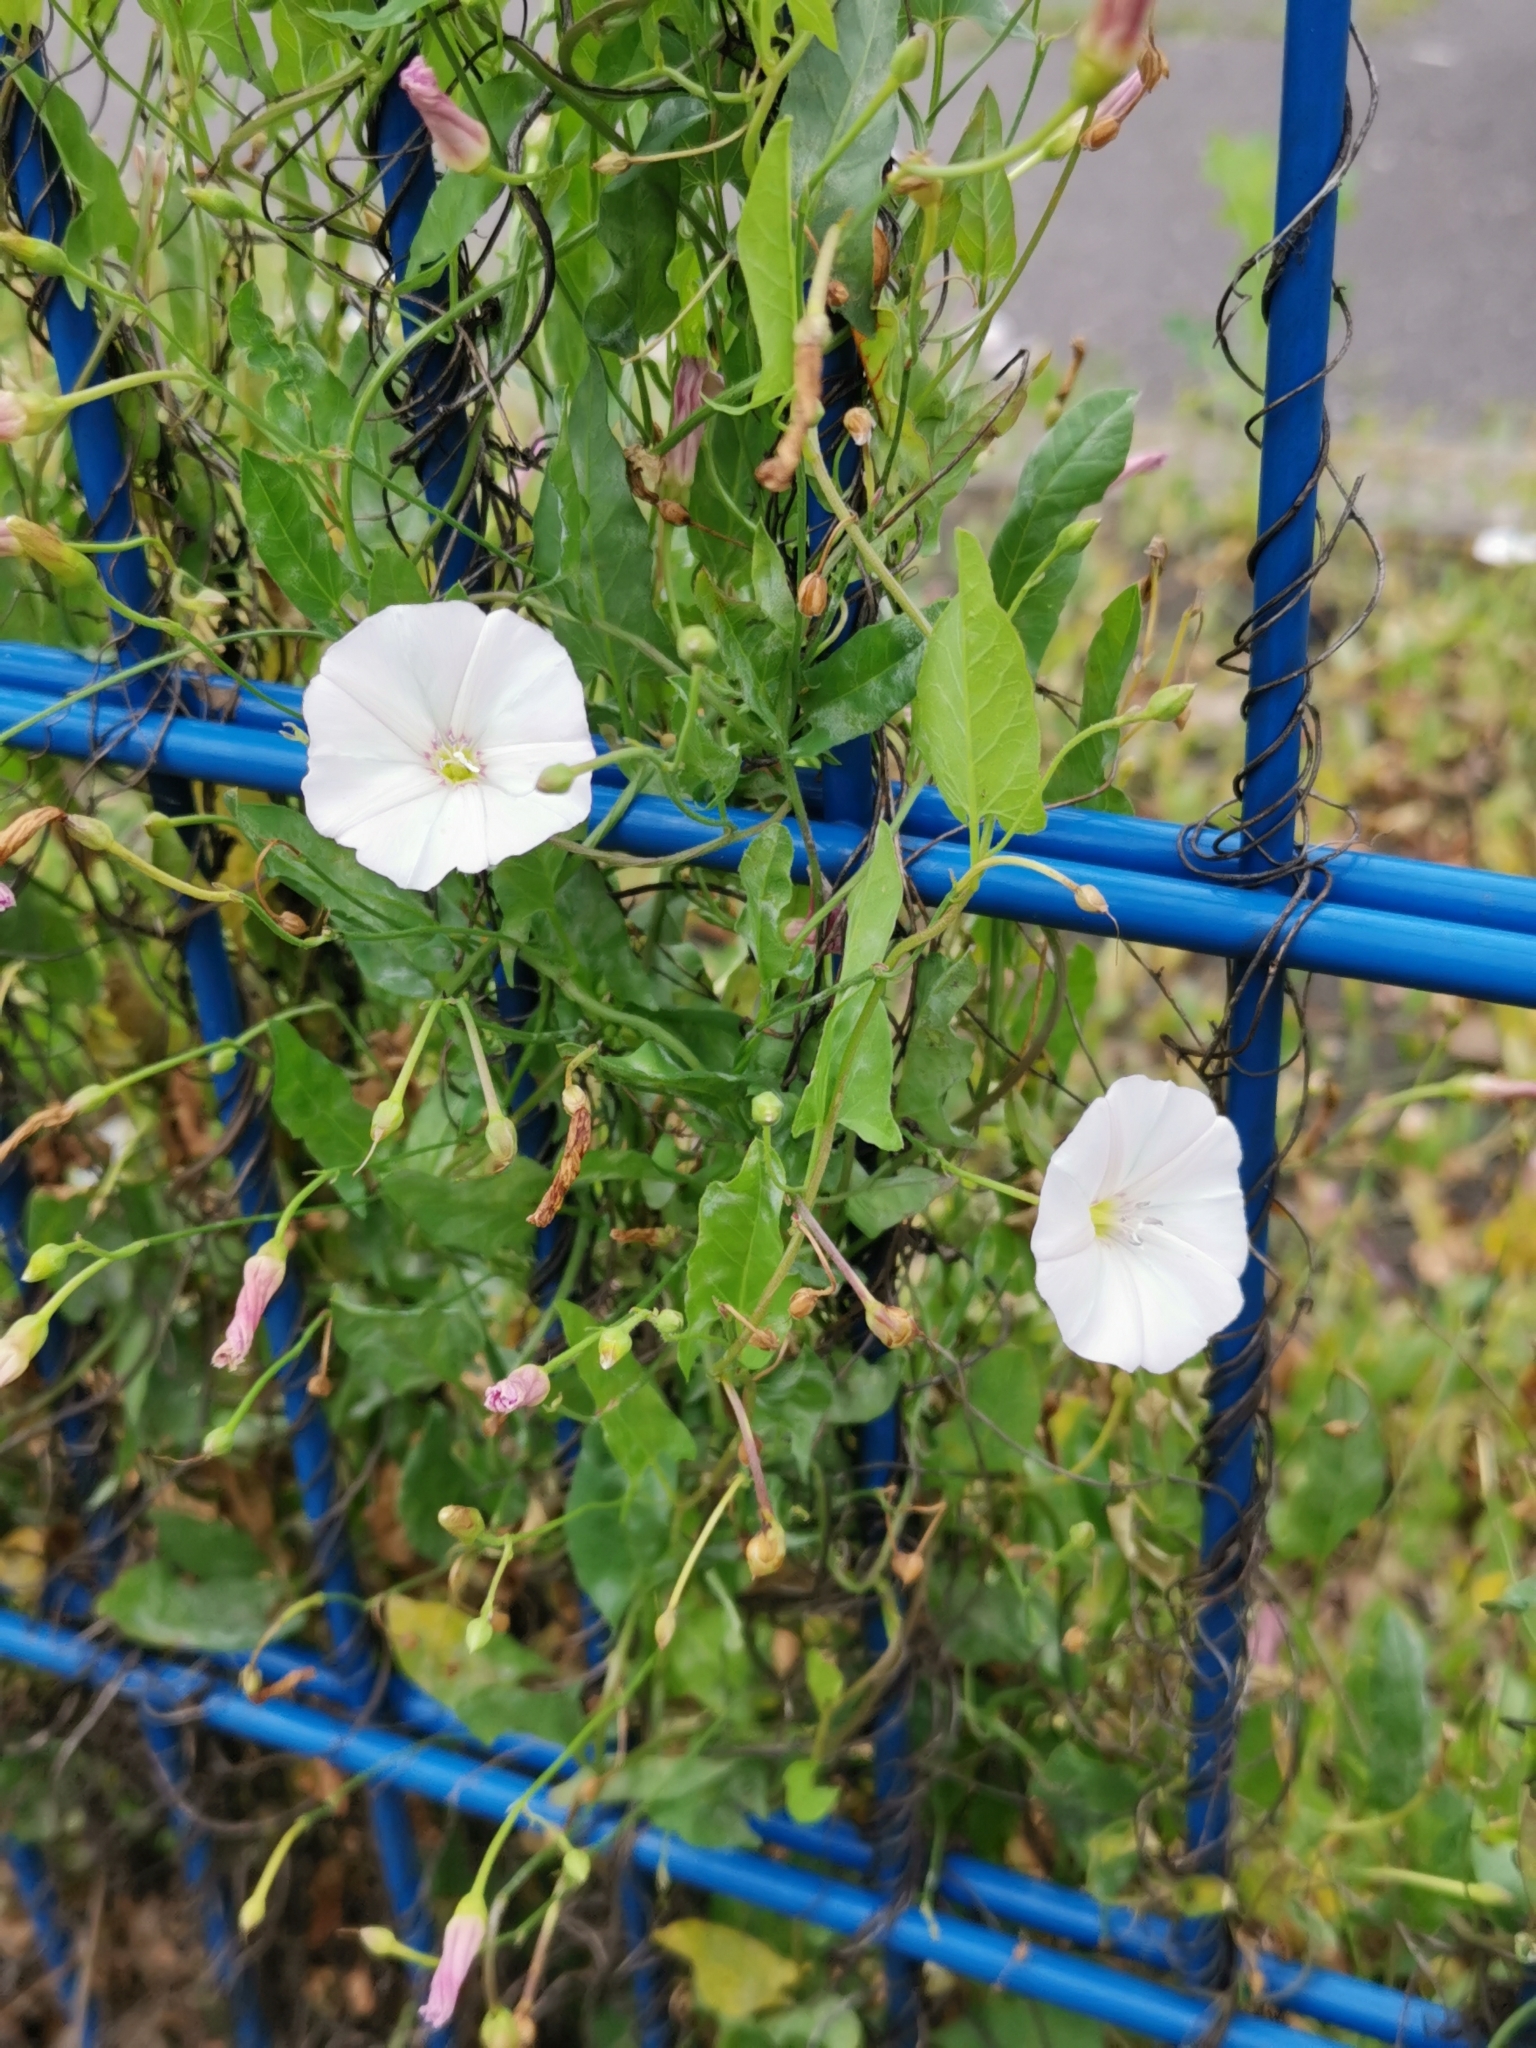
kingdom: Plantae
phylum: Tracheophyta
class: Magnoliopsida
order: Solanales
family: Convolvulaceae
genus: Convolvulus
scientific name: Convolvulus arvensis
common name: Field bindweed
